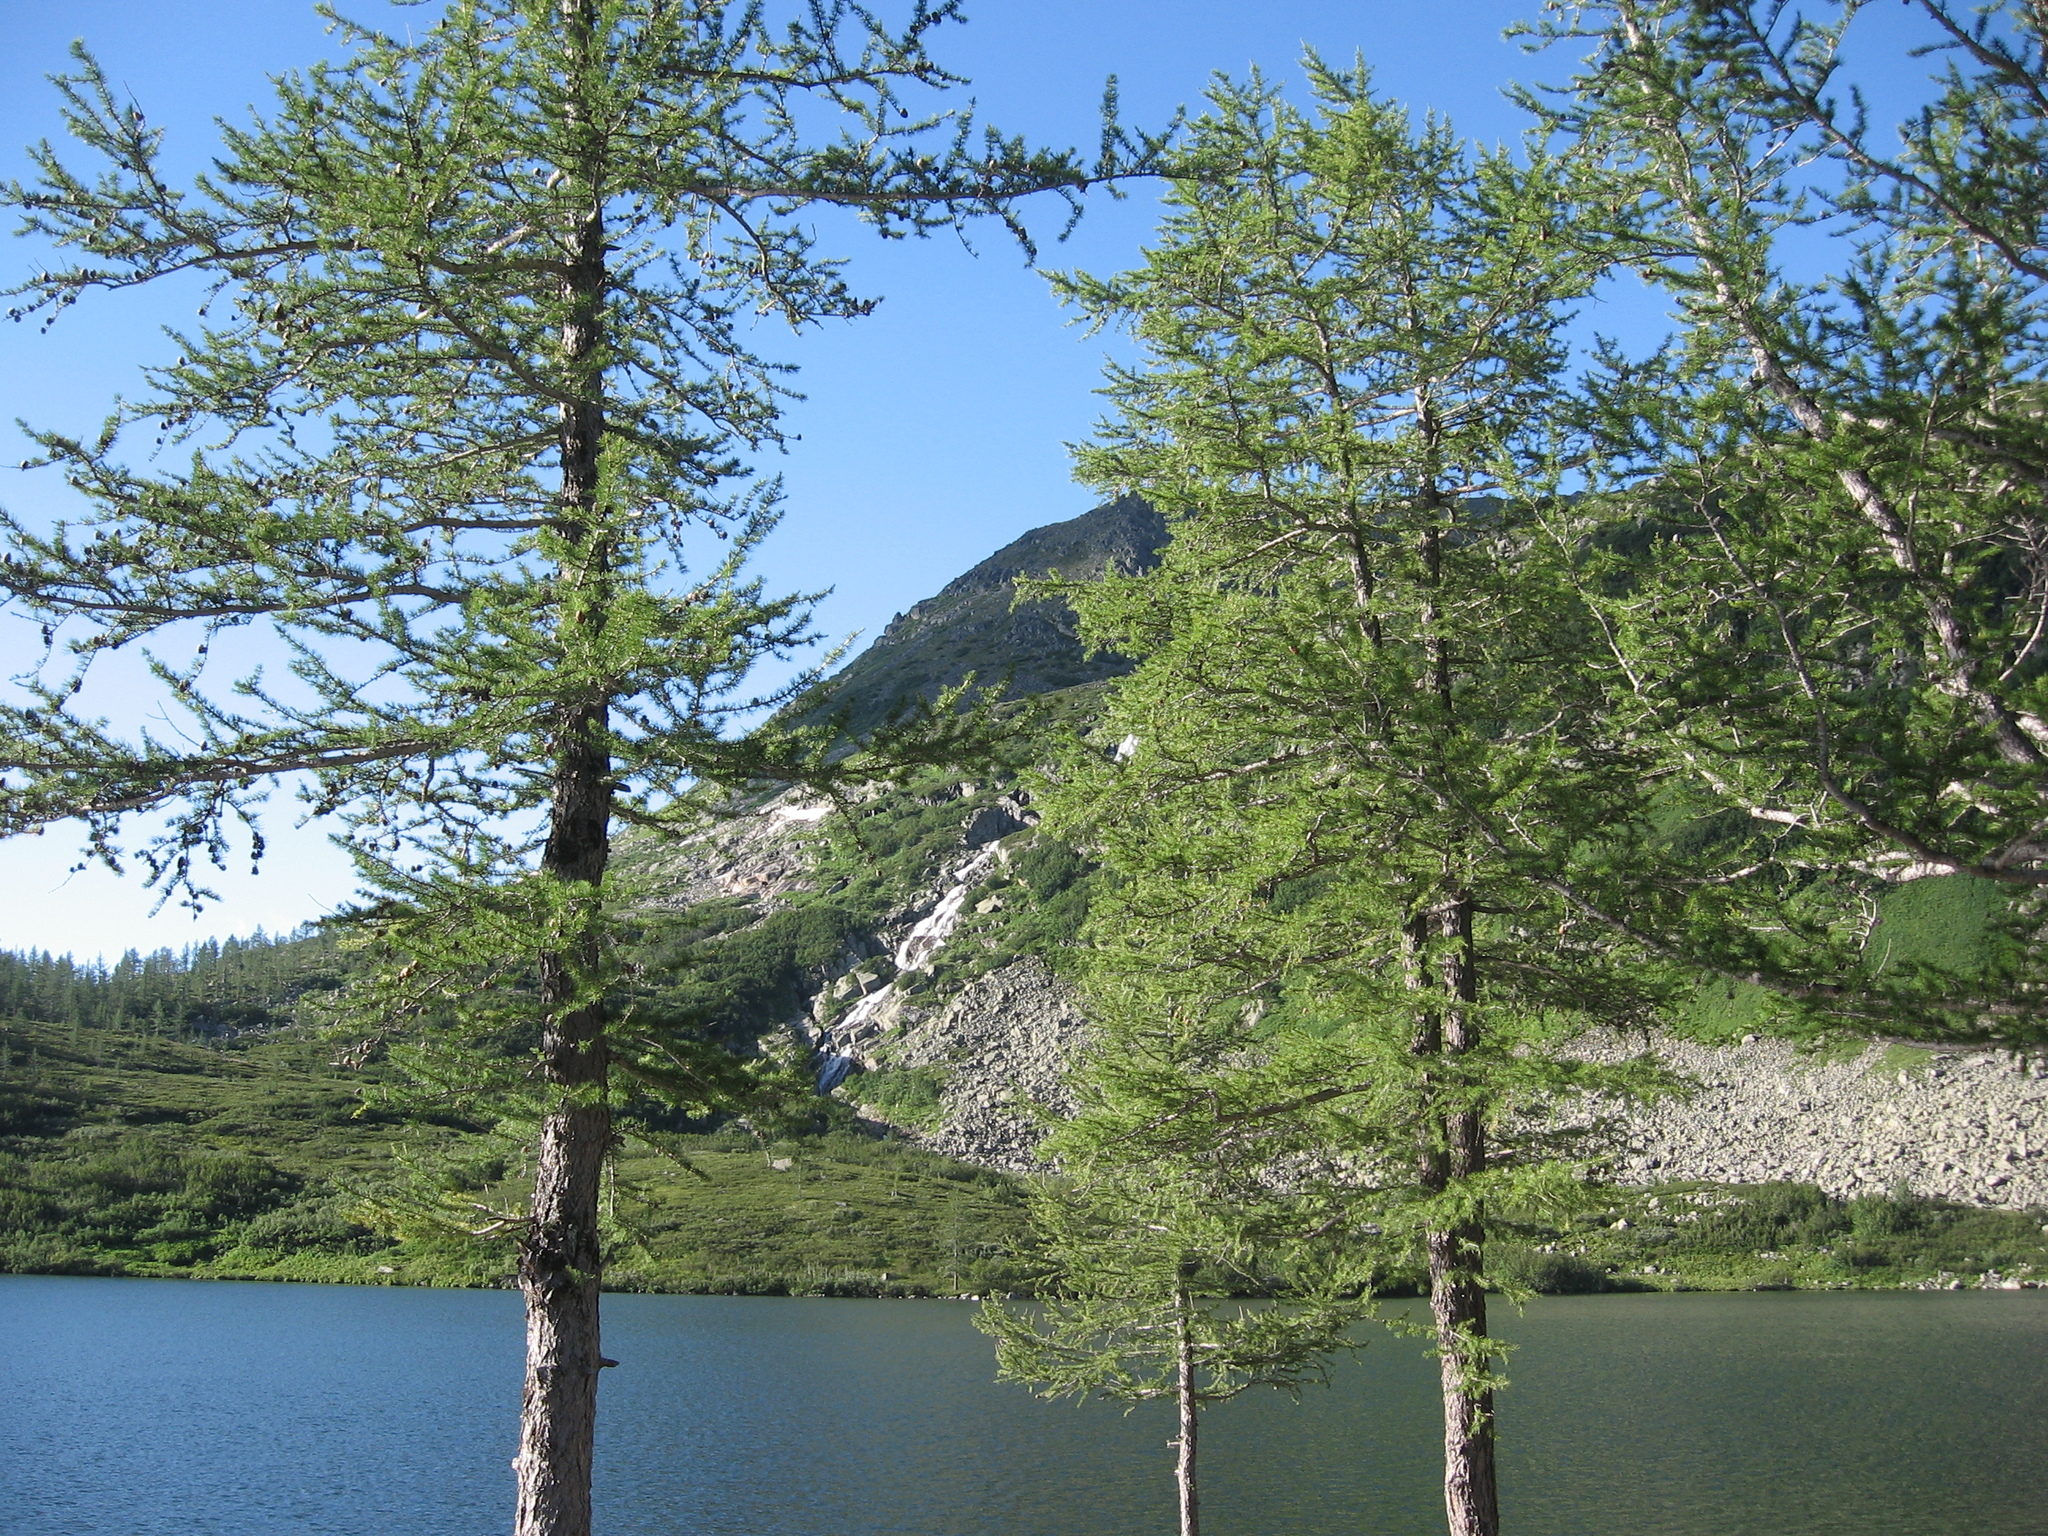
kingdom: Plantae
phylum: Tracheophyta
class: Pinopsida
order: Pinales
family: Pinaceae
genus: Larix
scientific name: Larix sibirica
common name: Siberian larch
